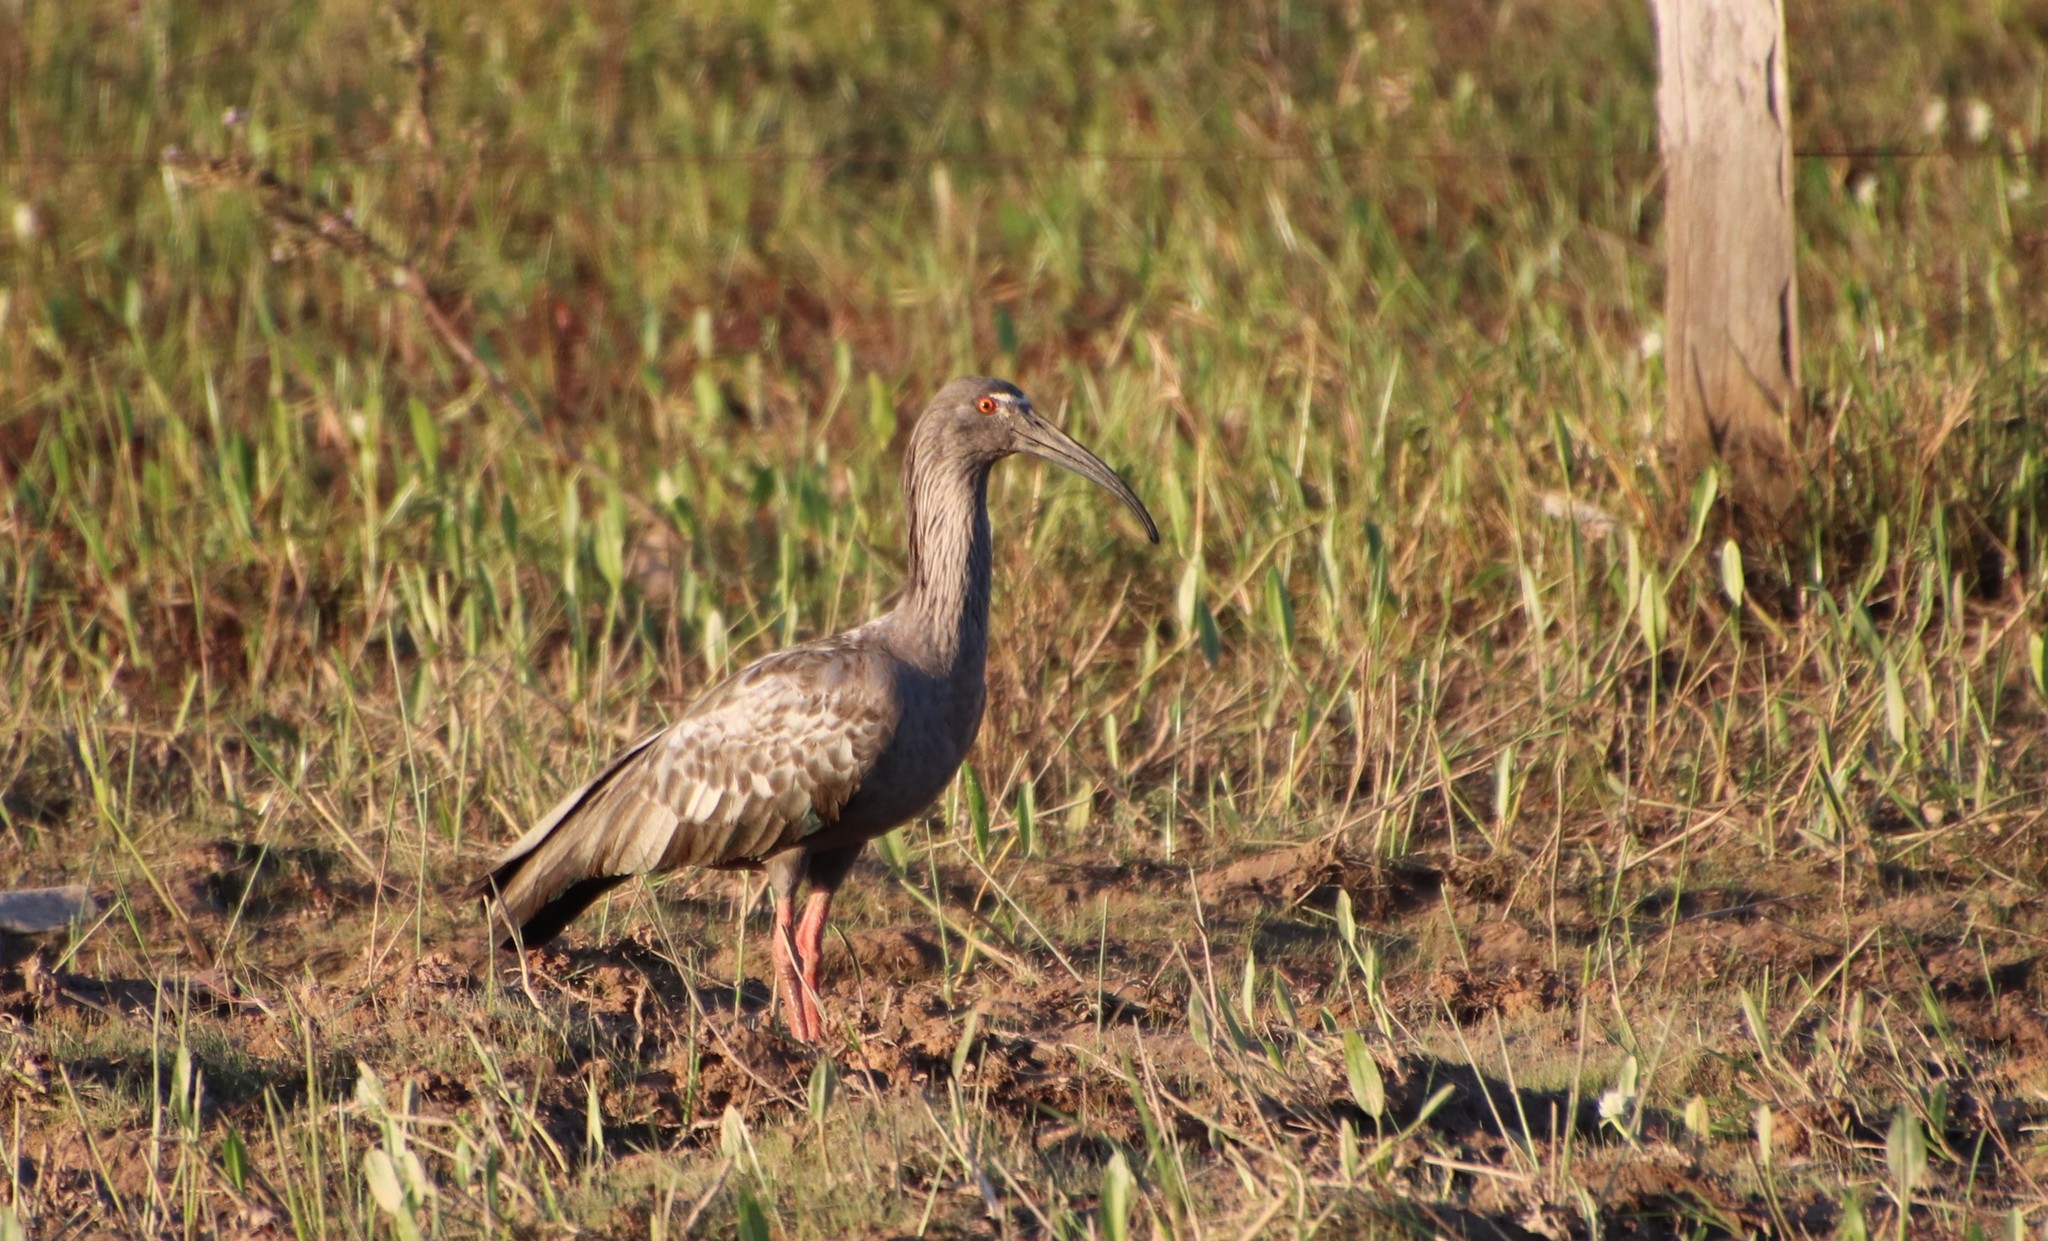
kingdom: Animalia
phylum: Chordata
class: Aves
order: Pelecaniformes
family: Threskiornithidae
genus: Theristicus
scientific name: Theristicus caerulescens
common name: Plumbeous ibis
